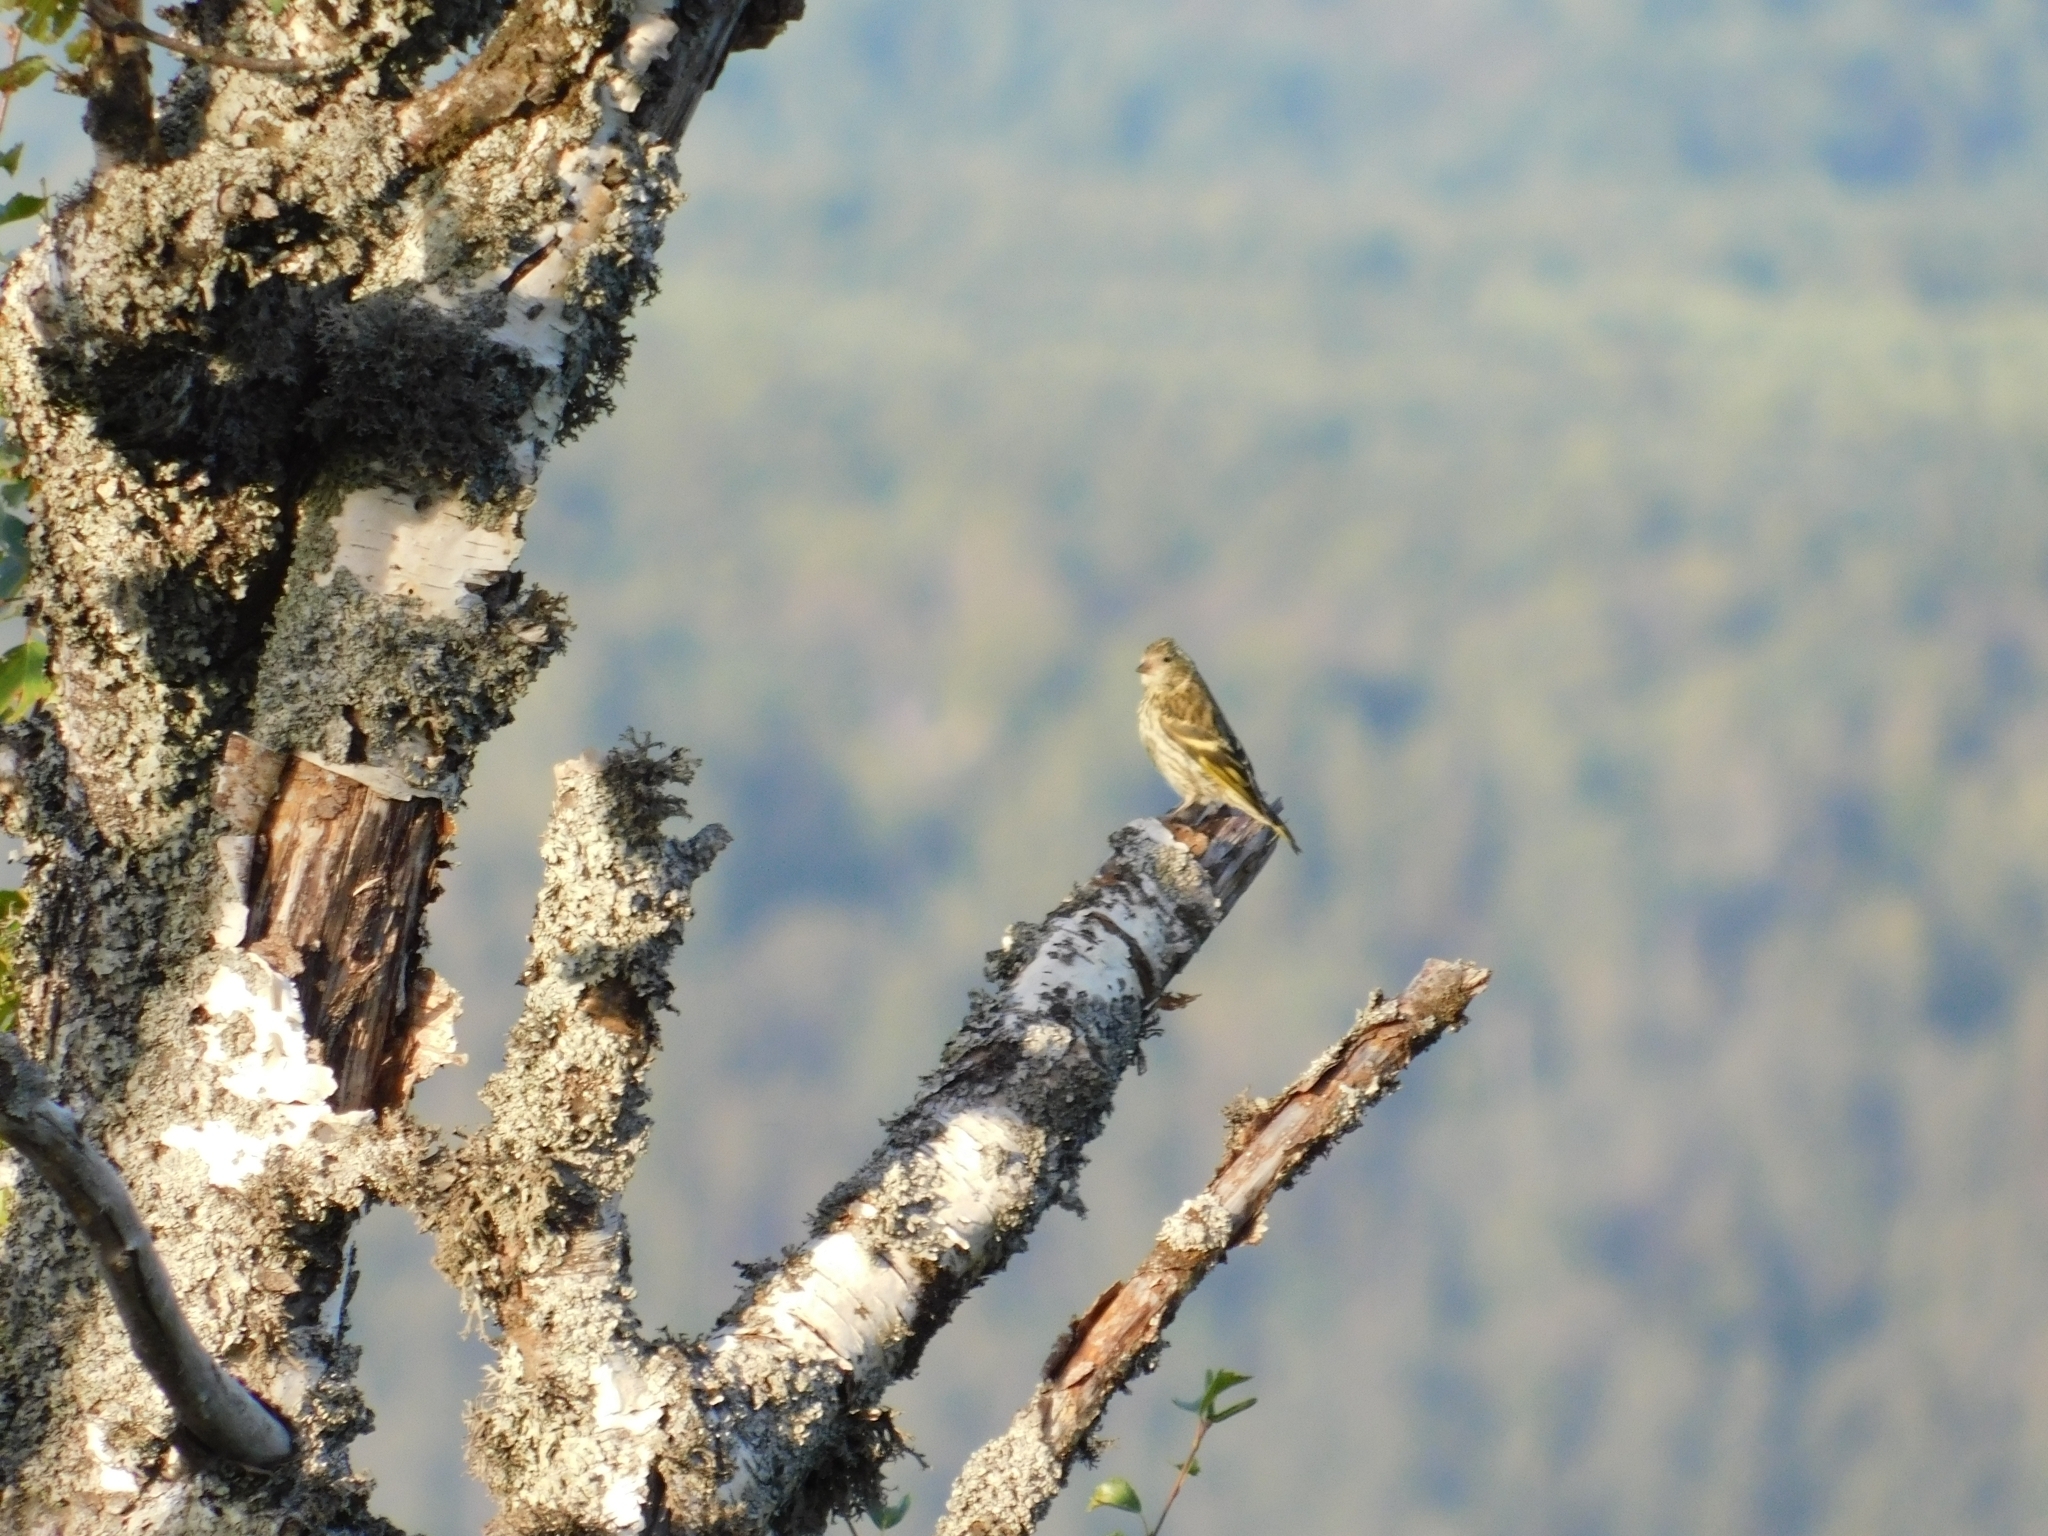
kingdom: Animalia
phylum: Chordata
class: Aves
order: Passeriformes
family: Fringillidae
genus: Spinus
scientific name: Spinus spinus
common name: Eurasian siskin
